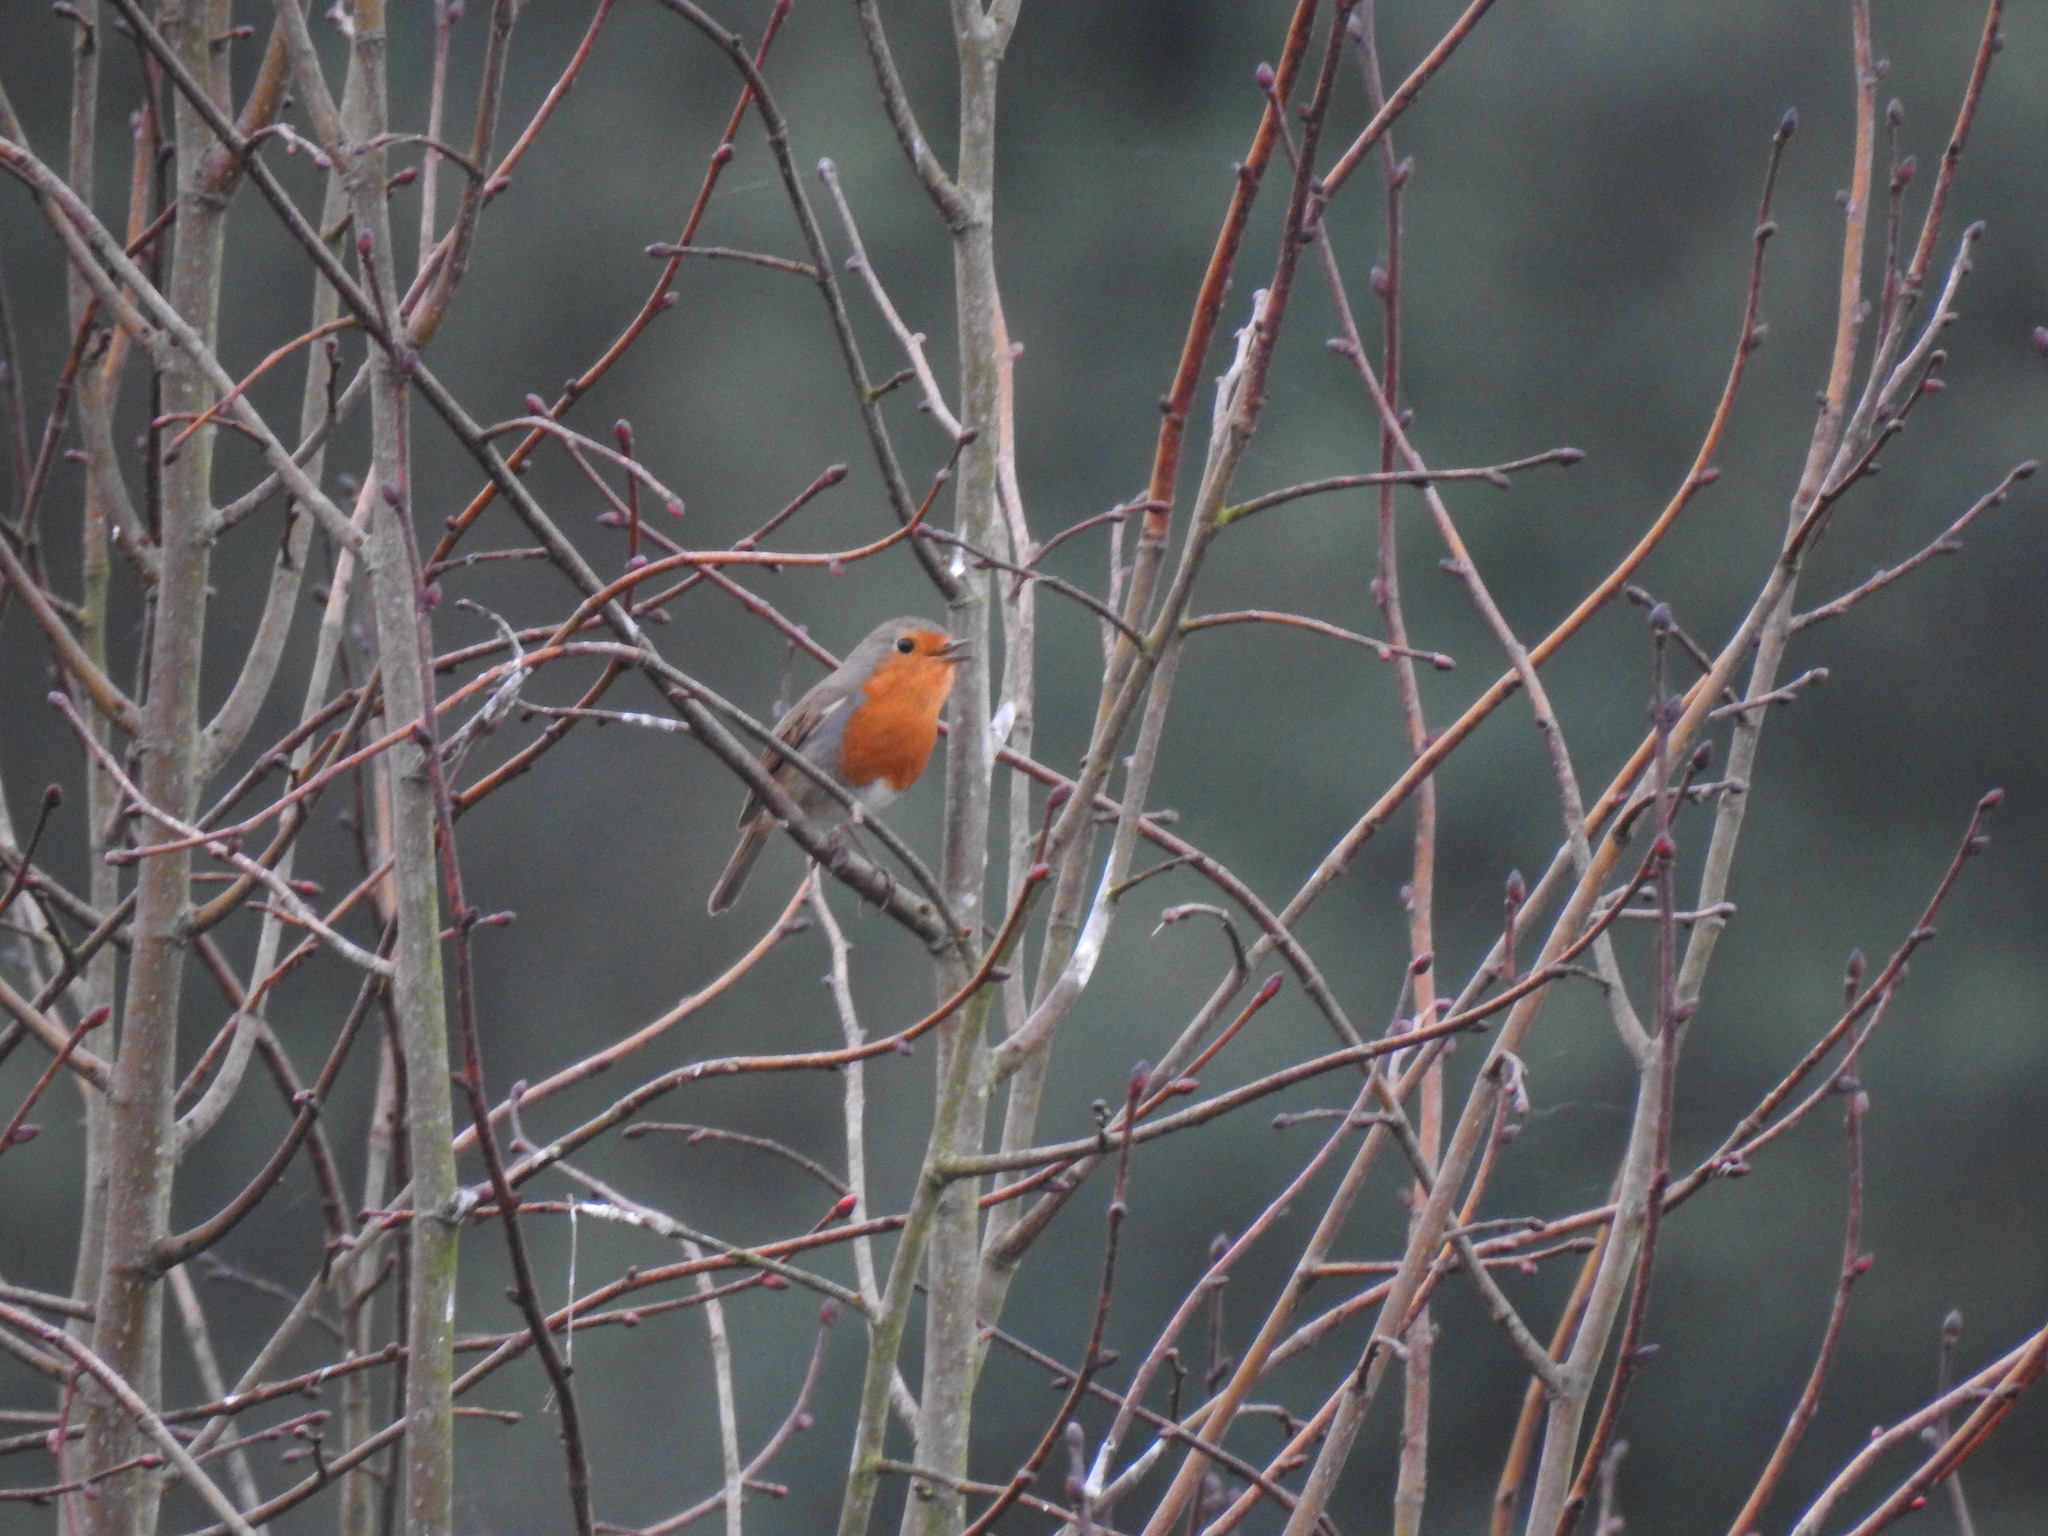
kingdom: Animalia
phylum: Chordata
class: Aves
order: Passeriformes
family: Muscicapidae
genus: Erithacus
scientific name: Erithacus rubecula
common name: European robin
